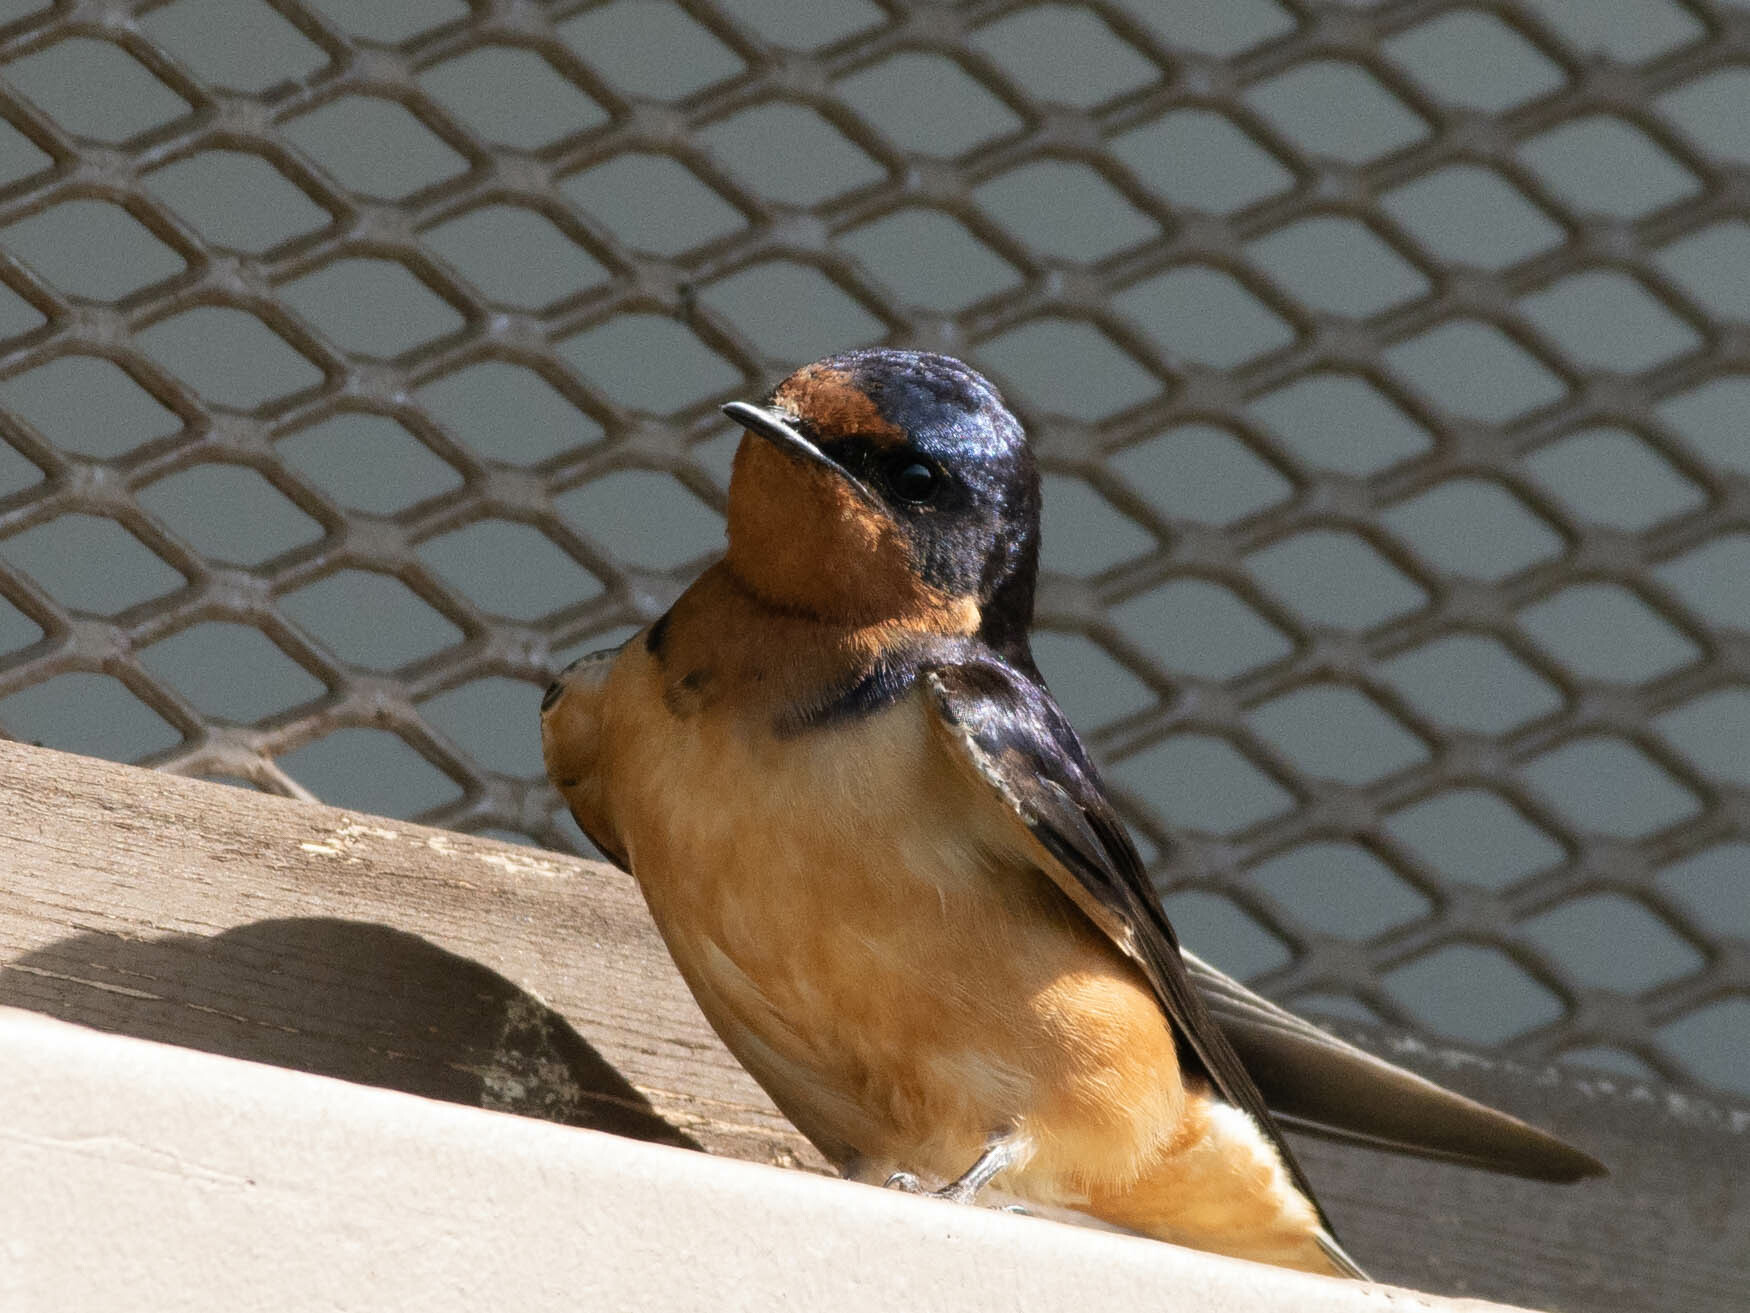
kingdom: Animalia
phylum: Chordata
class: Aves
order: Passeriformes
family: Hirundinidae
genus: Hirundo
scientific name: Hirundo rustica
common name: Barn swallow
